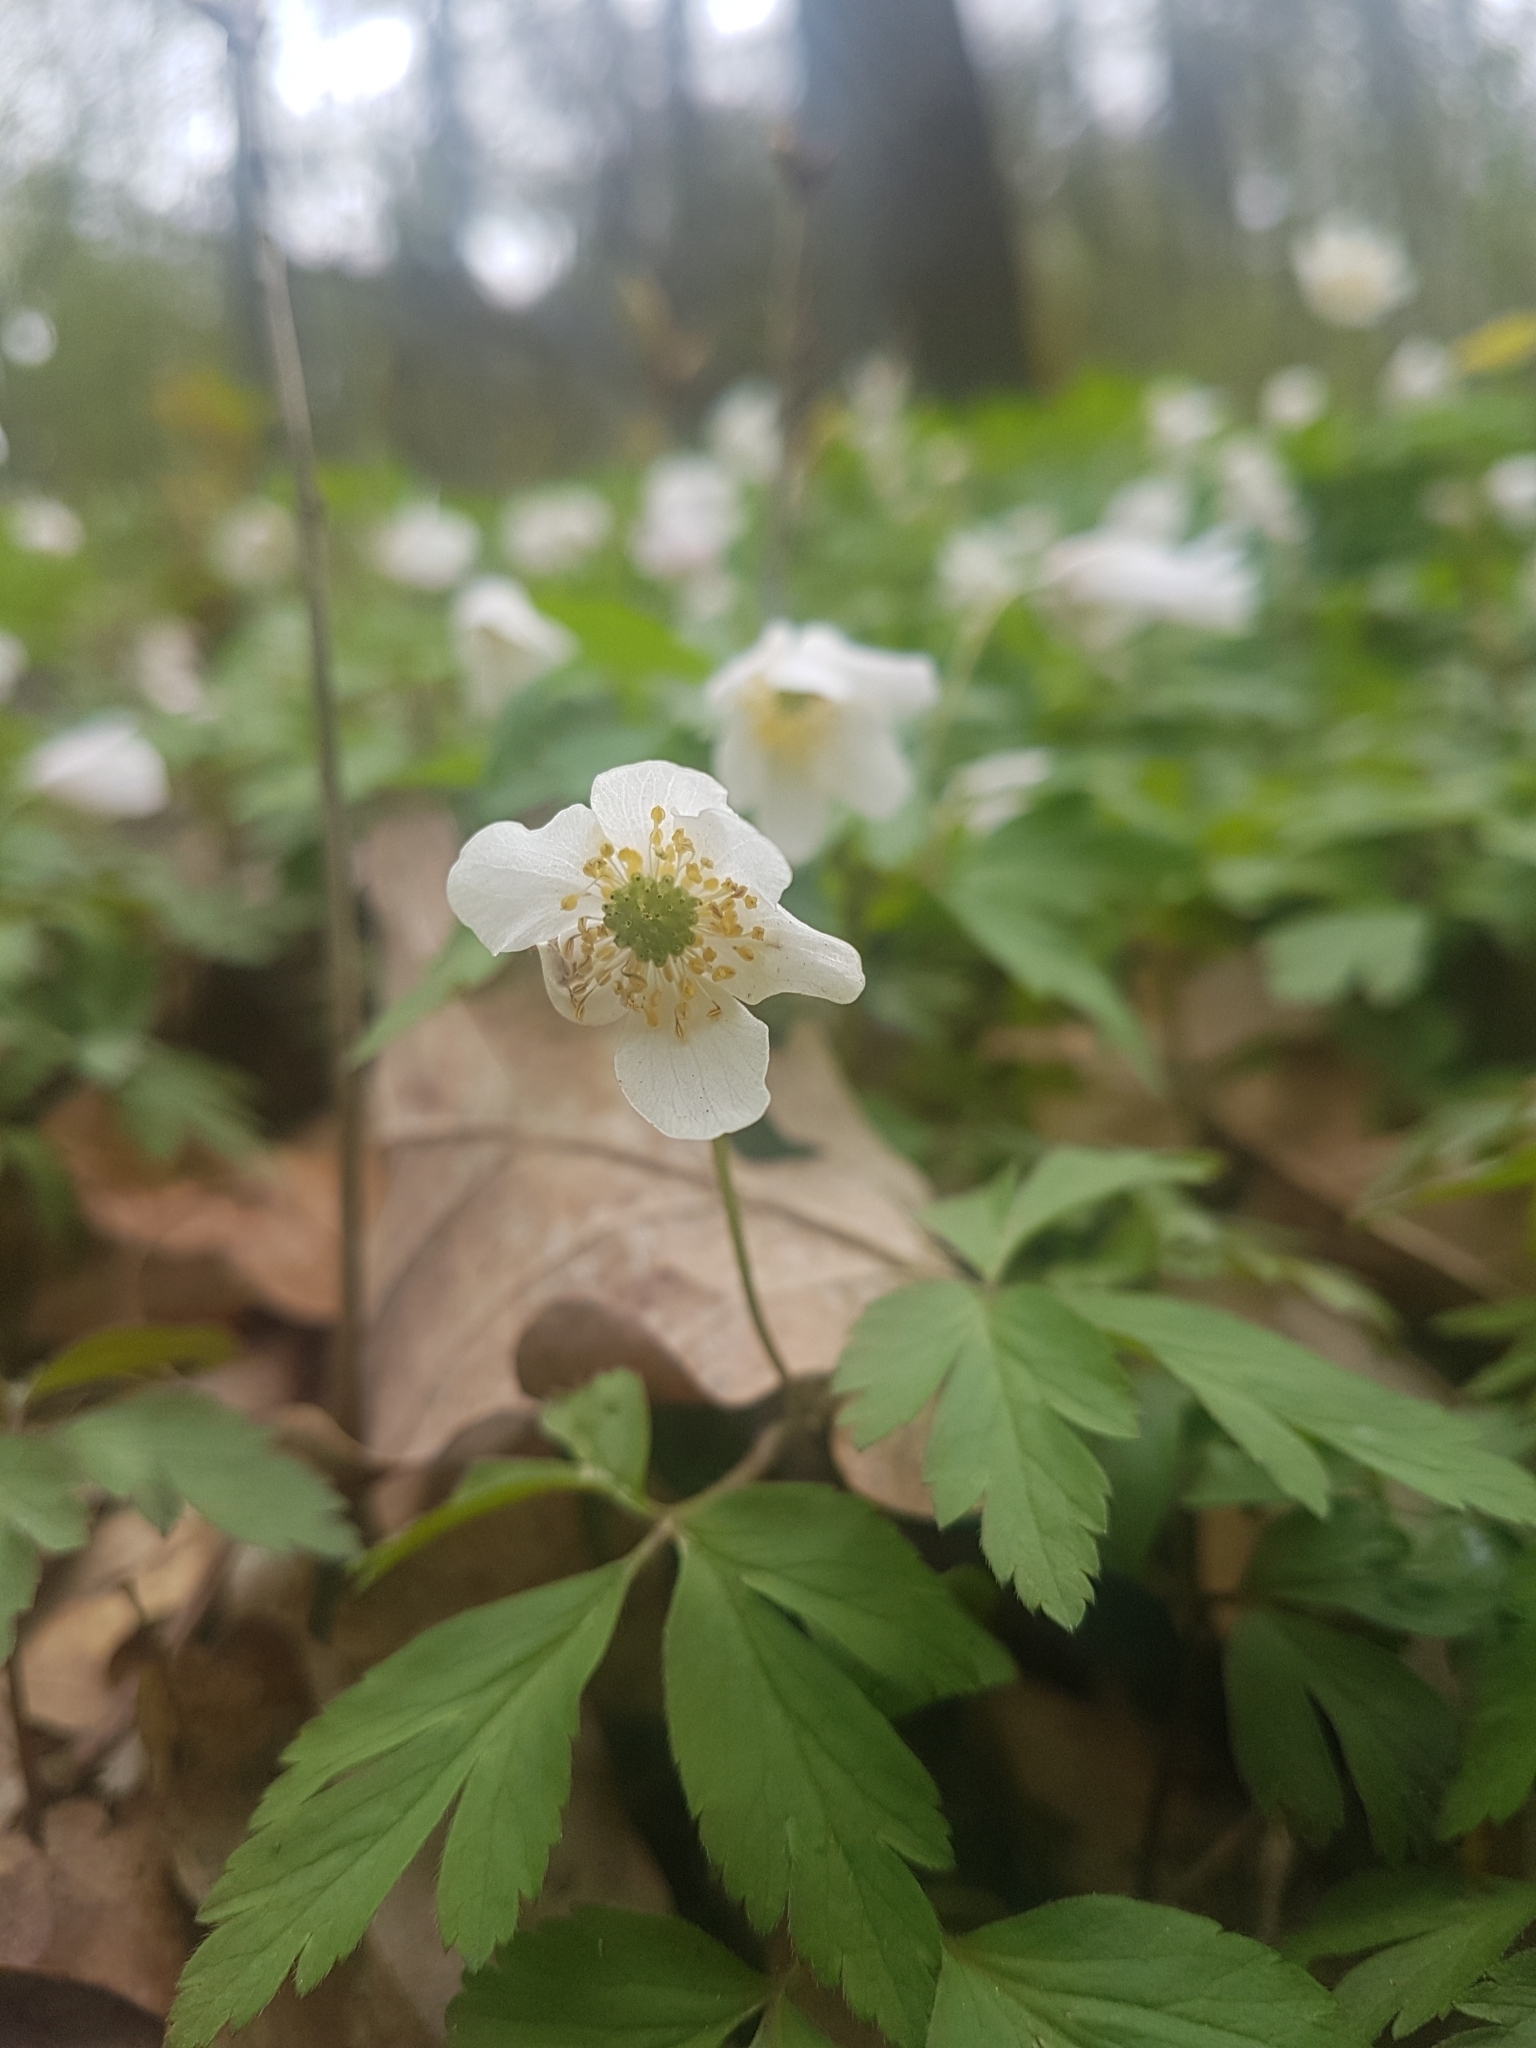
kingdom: Plantae
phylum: Tracheophyta
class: Magnoliopsida
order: Ranunculales
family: Ranunculaceae
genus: Anemone
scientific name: Anemone nemorosa
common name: Wood anemone
